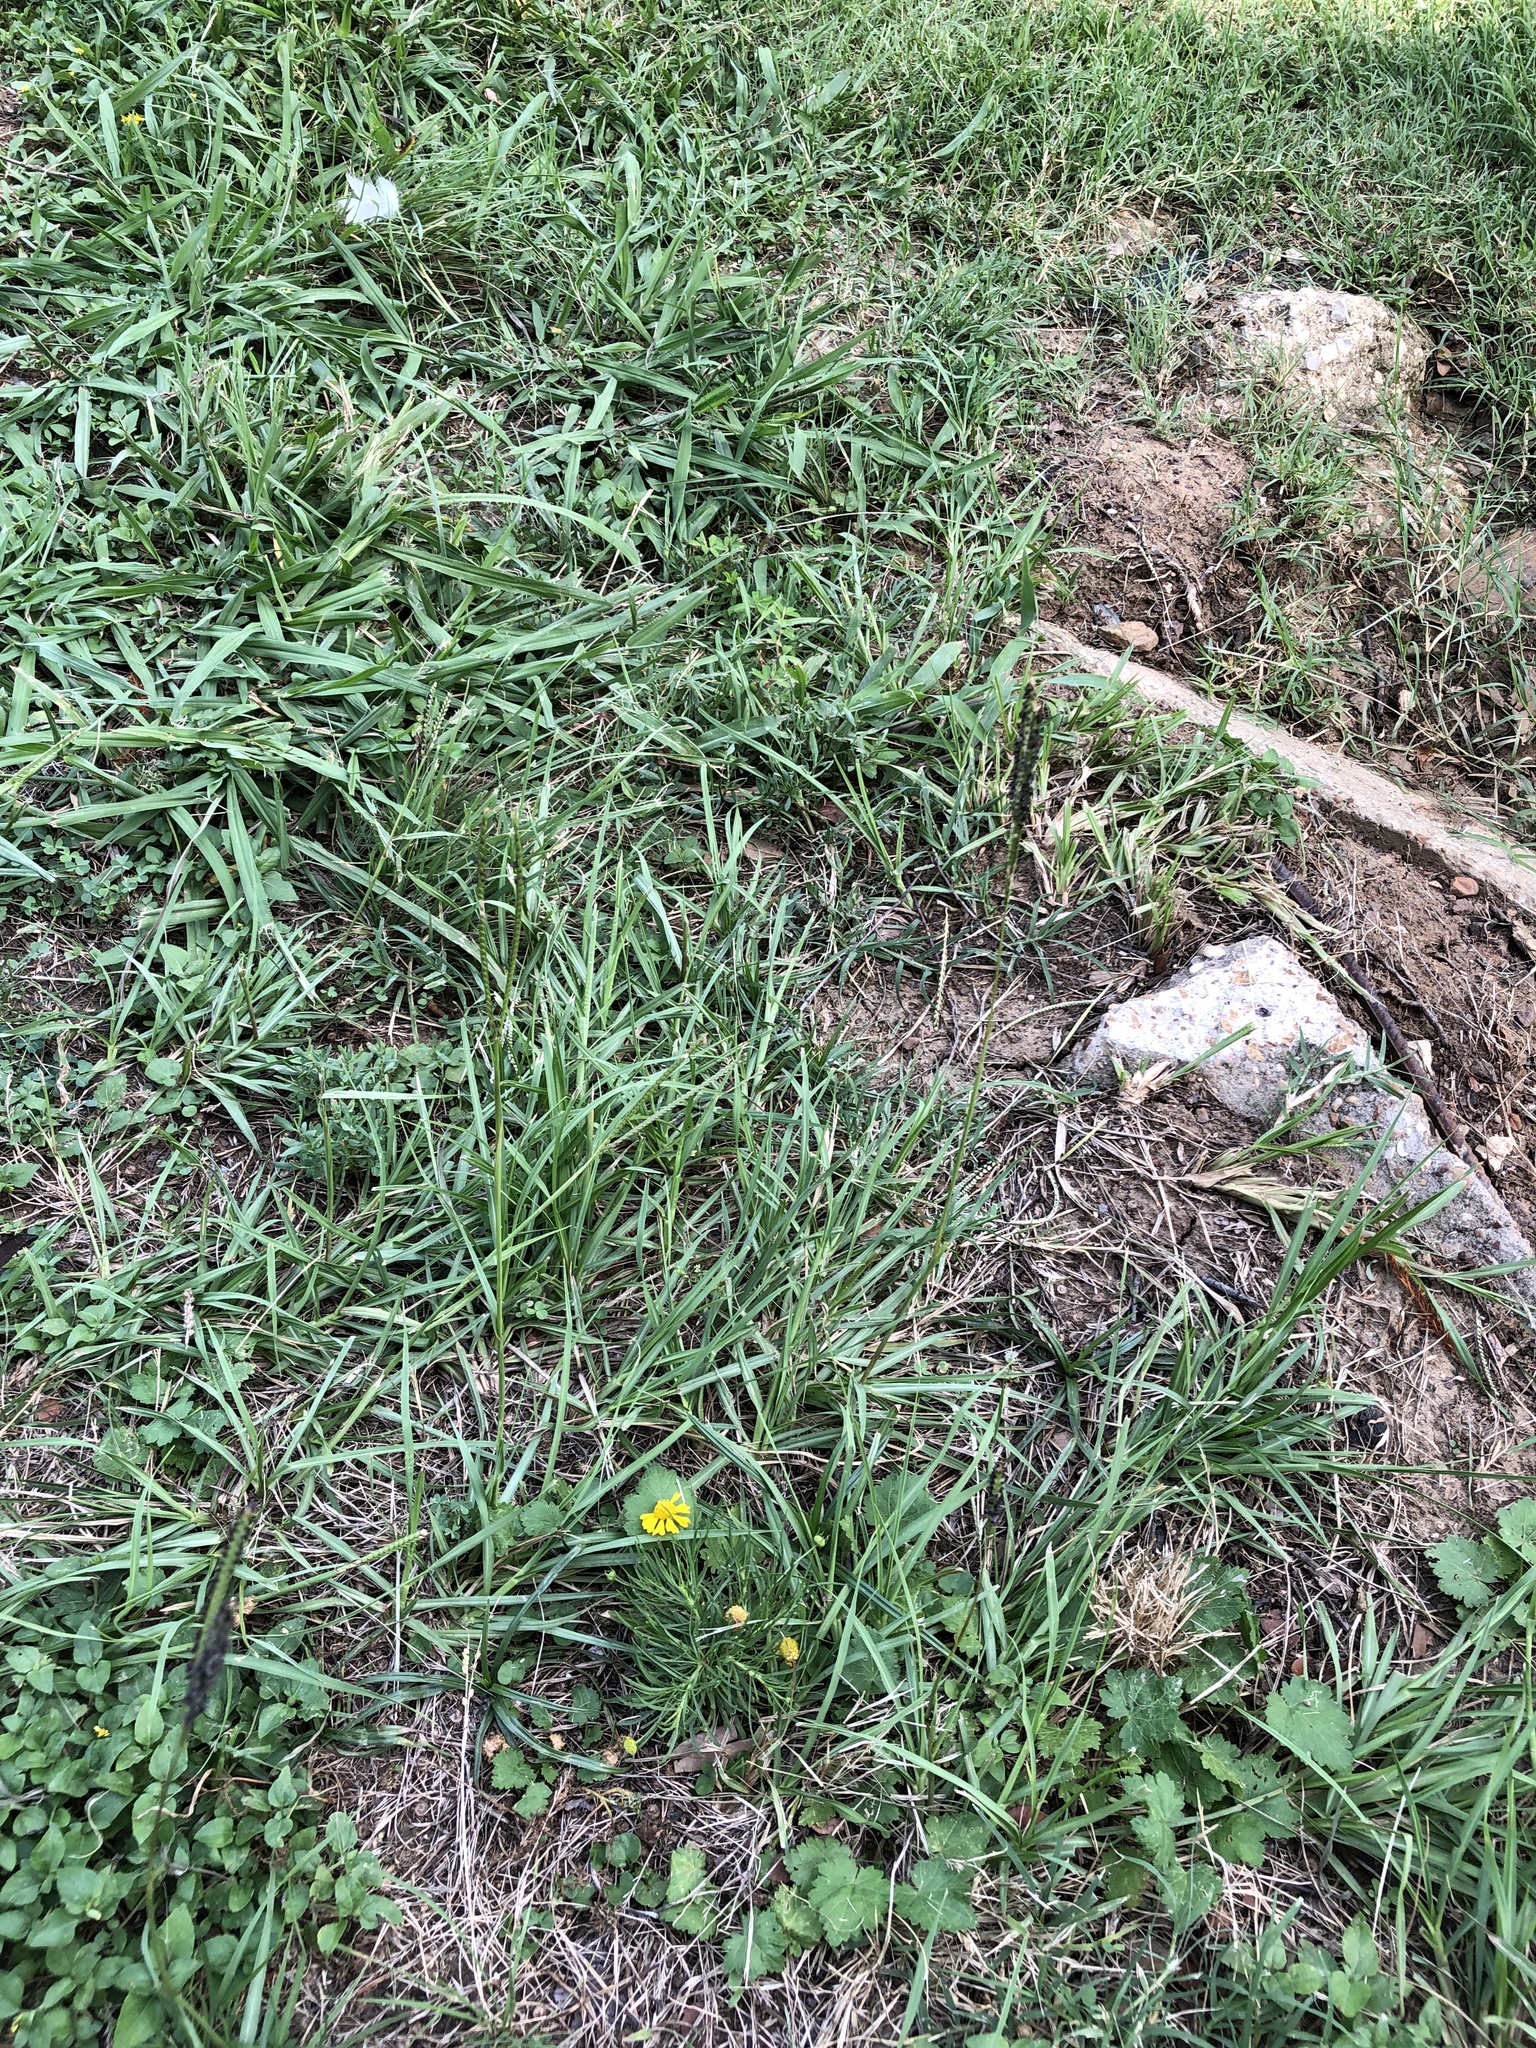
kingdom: Plantae
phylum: Tracheophyta
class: Liliopsida
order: Poales
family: Poaceae
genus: Paspalum
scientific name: Paspalum notatum
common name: Bahiagrass
